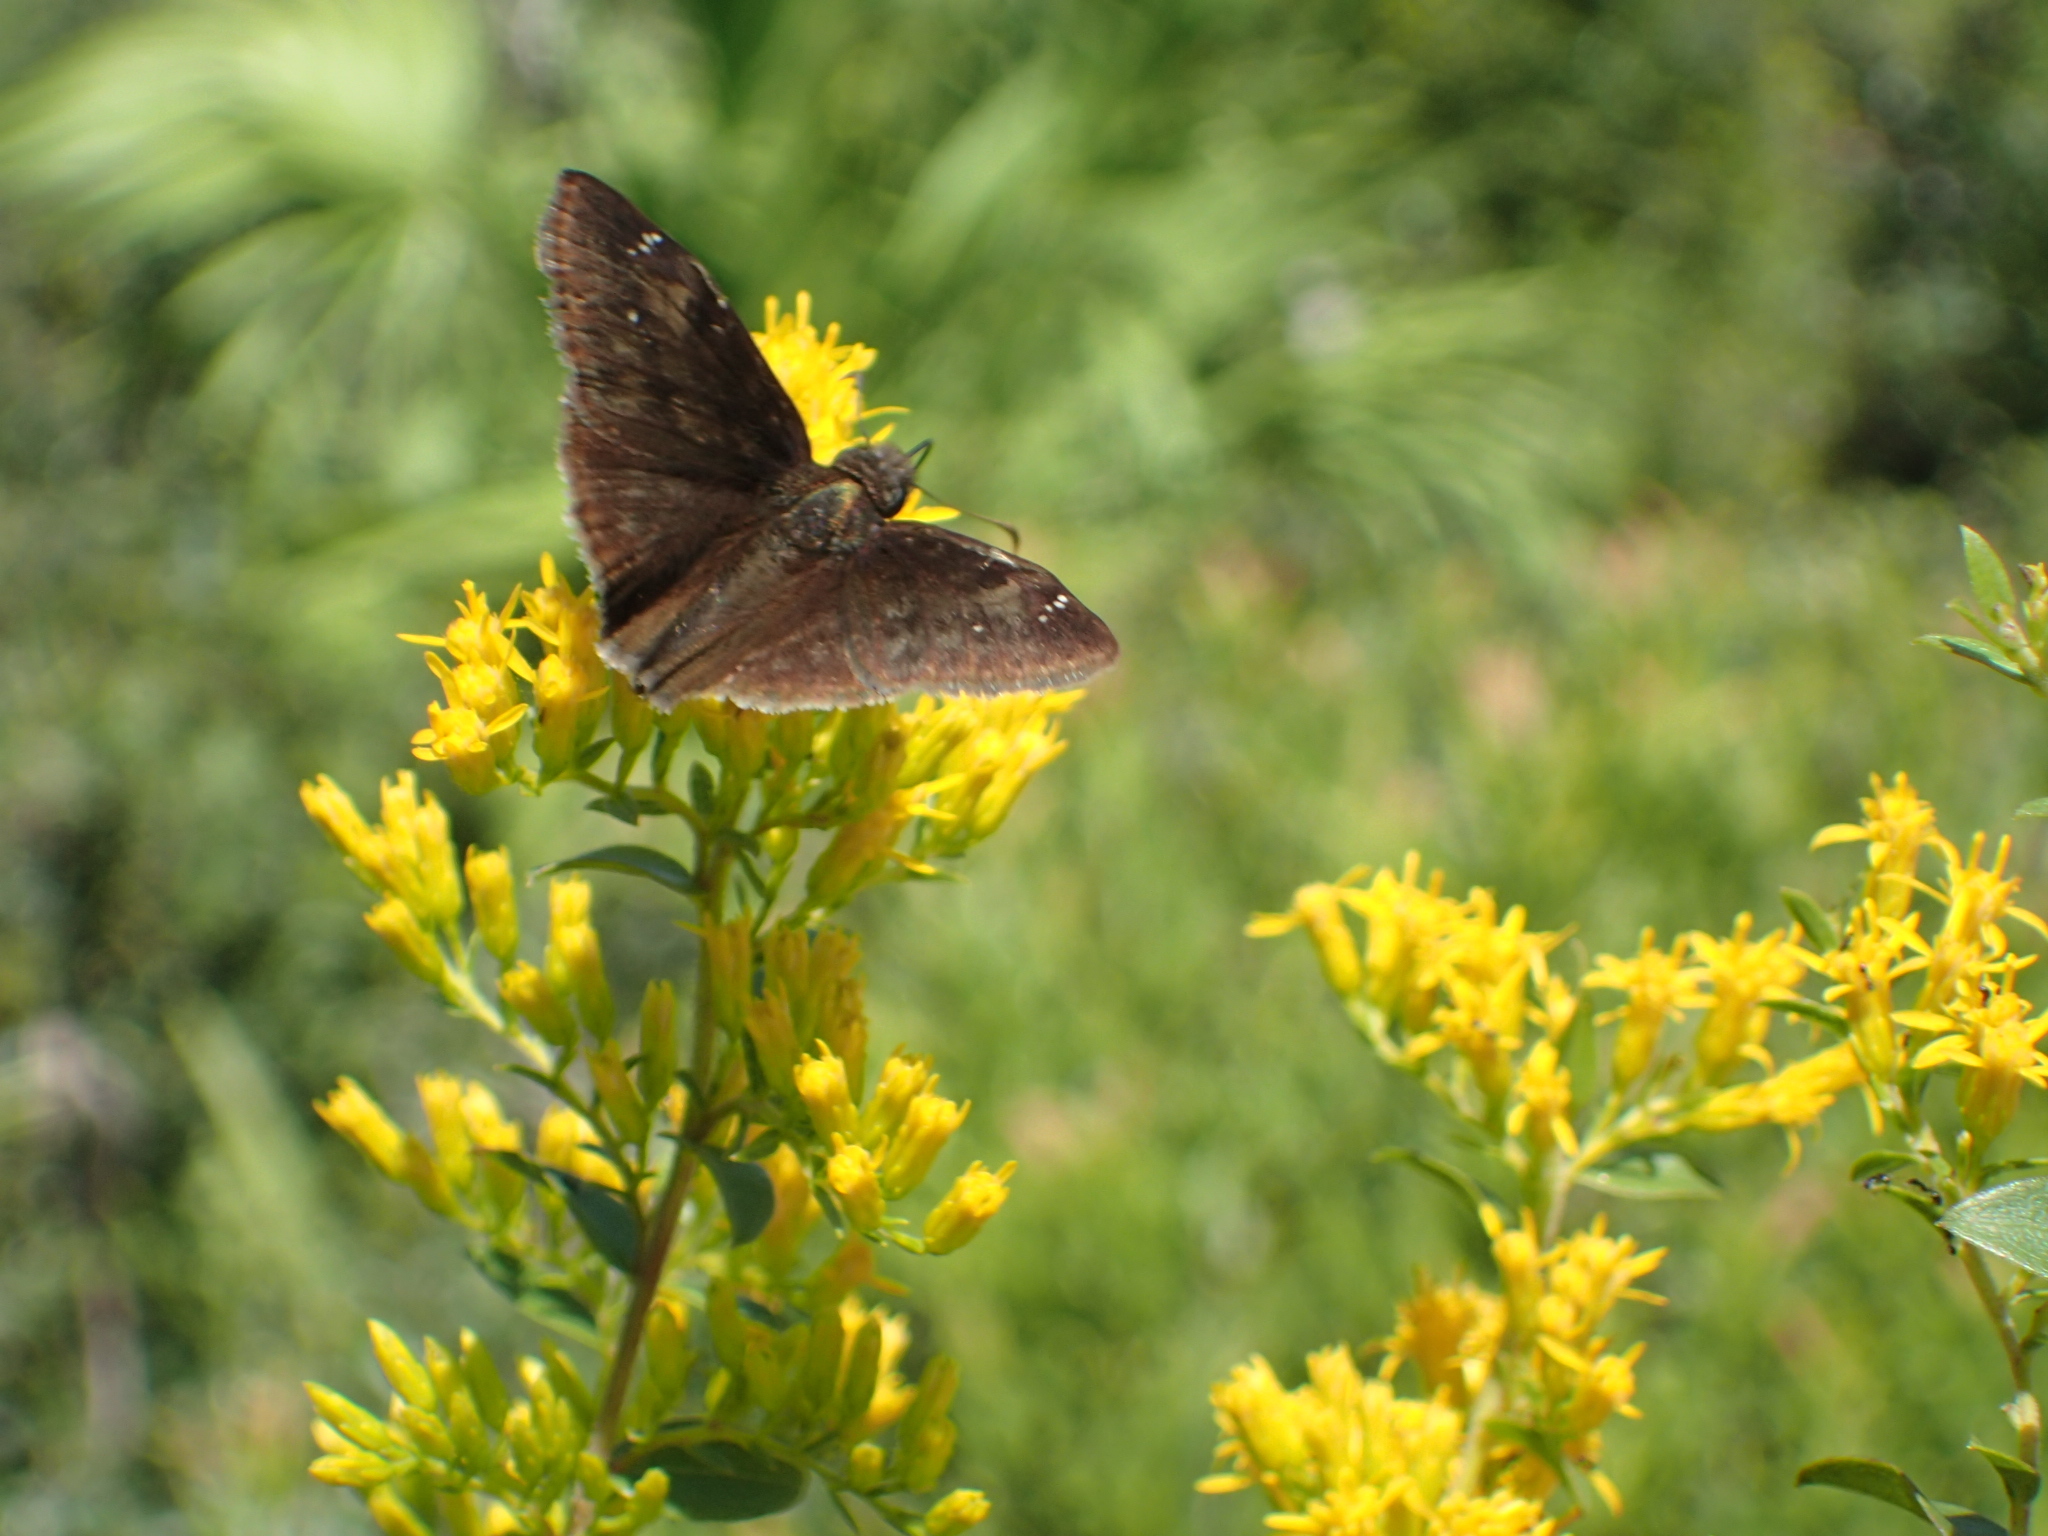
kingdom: Animalia
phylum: Arthropoda
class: Insecta
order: Lepidoptera
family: Hesperiidae
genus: Erynnis
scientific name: Erynnis zarucco
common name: Zarucco duskywing
